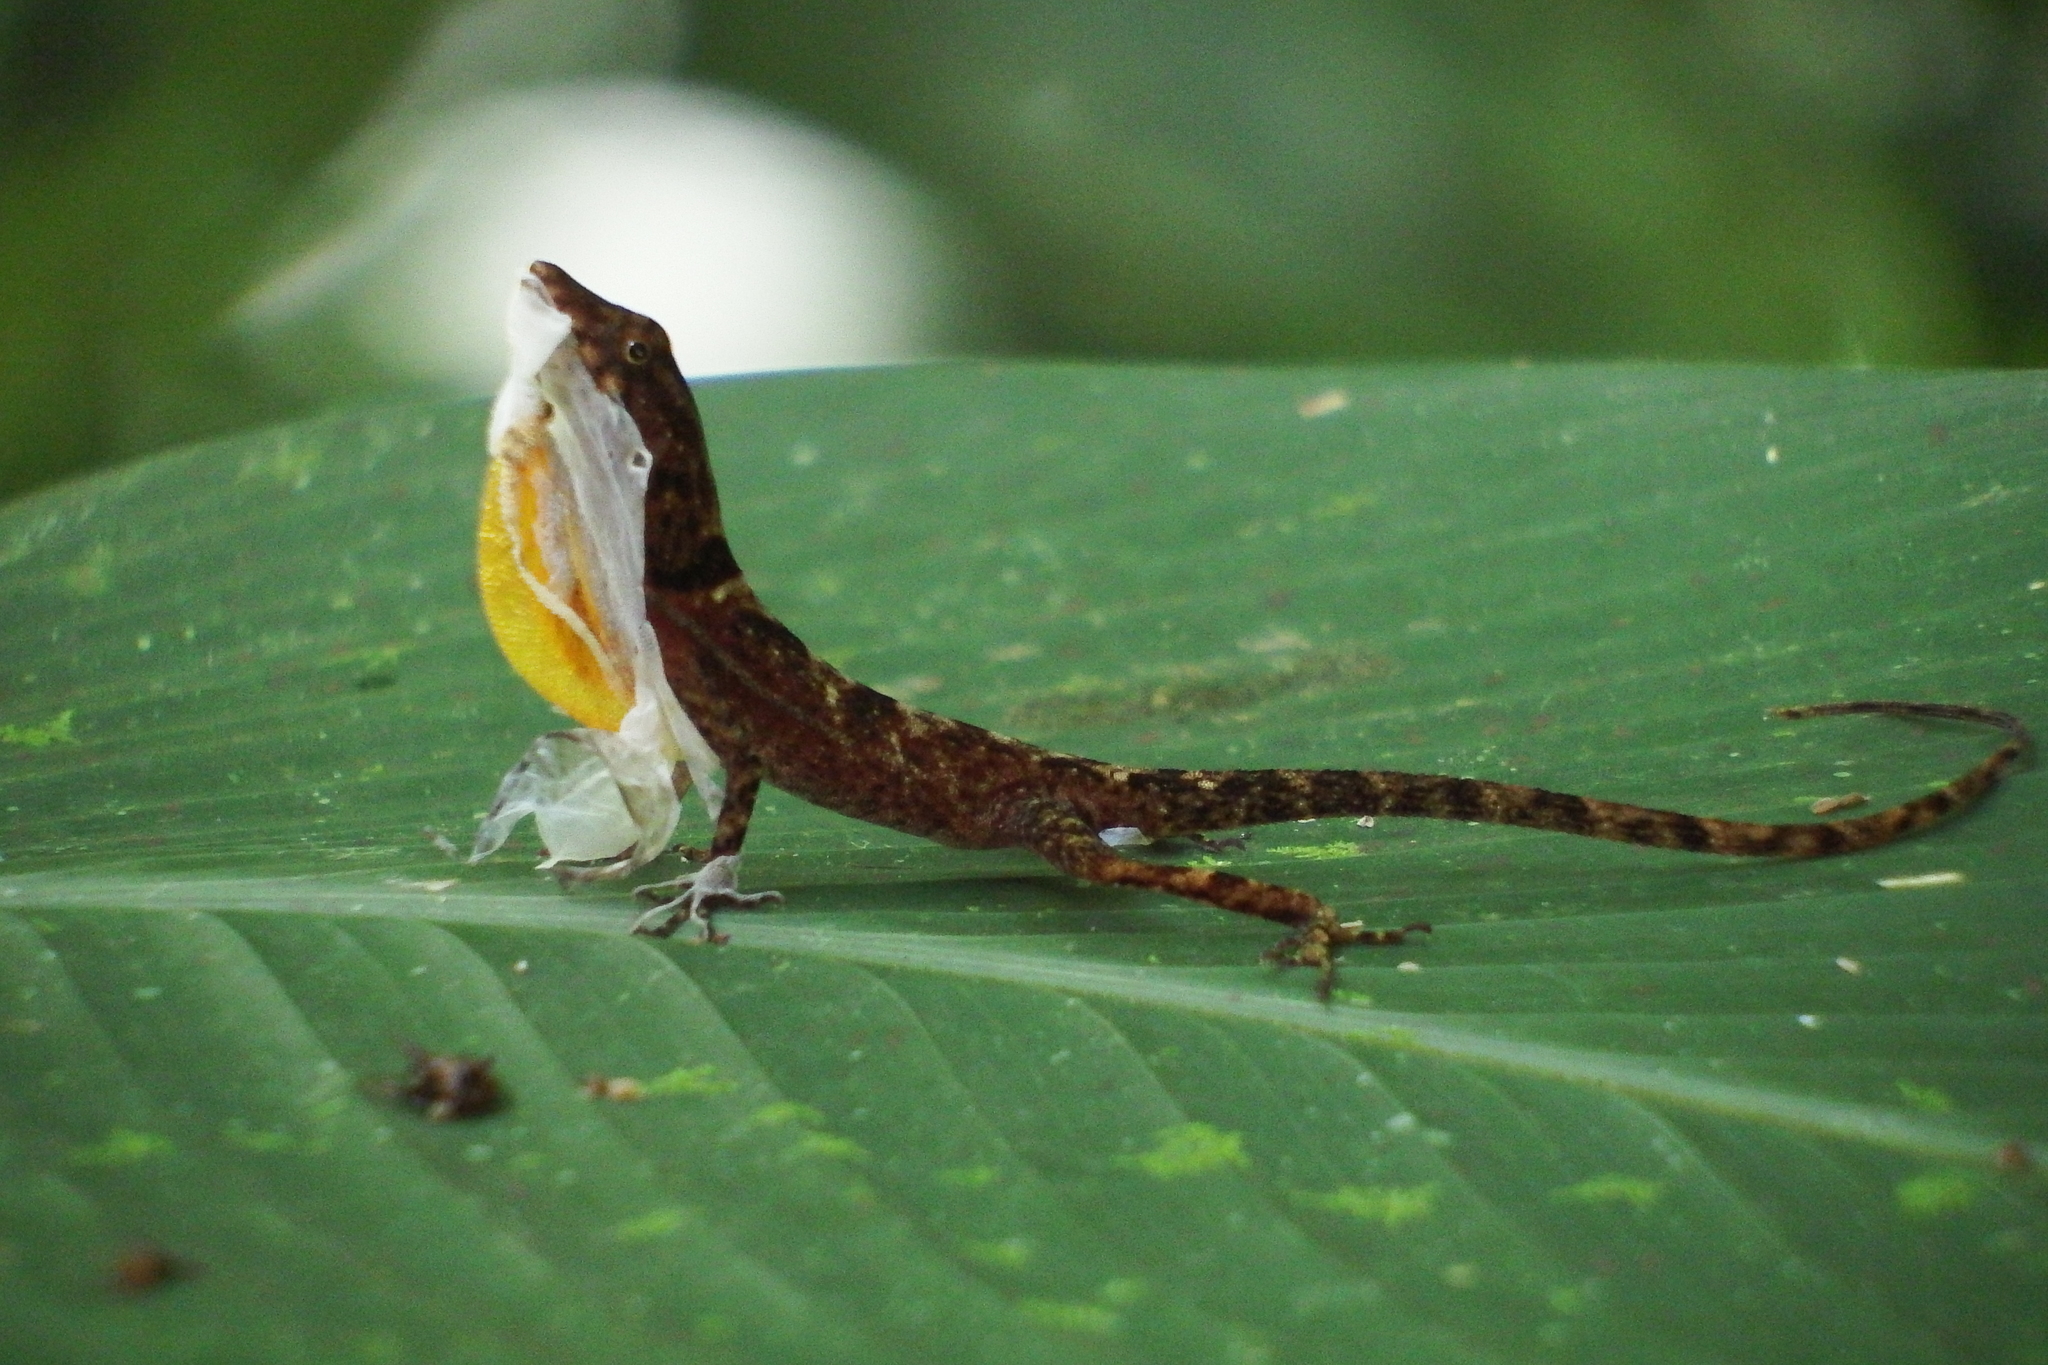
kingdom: Animalia
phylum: Chordata
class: Squamata
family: Dactyloidae
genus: Anolis
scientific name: Anolis osa
